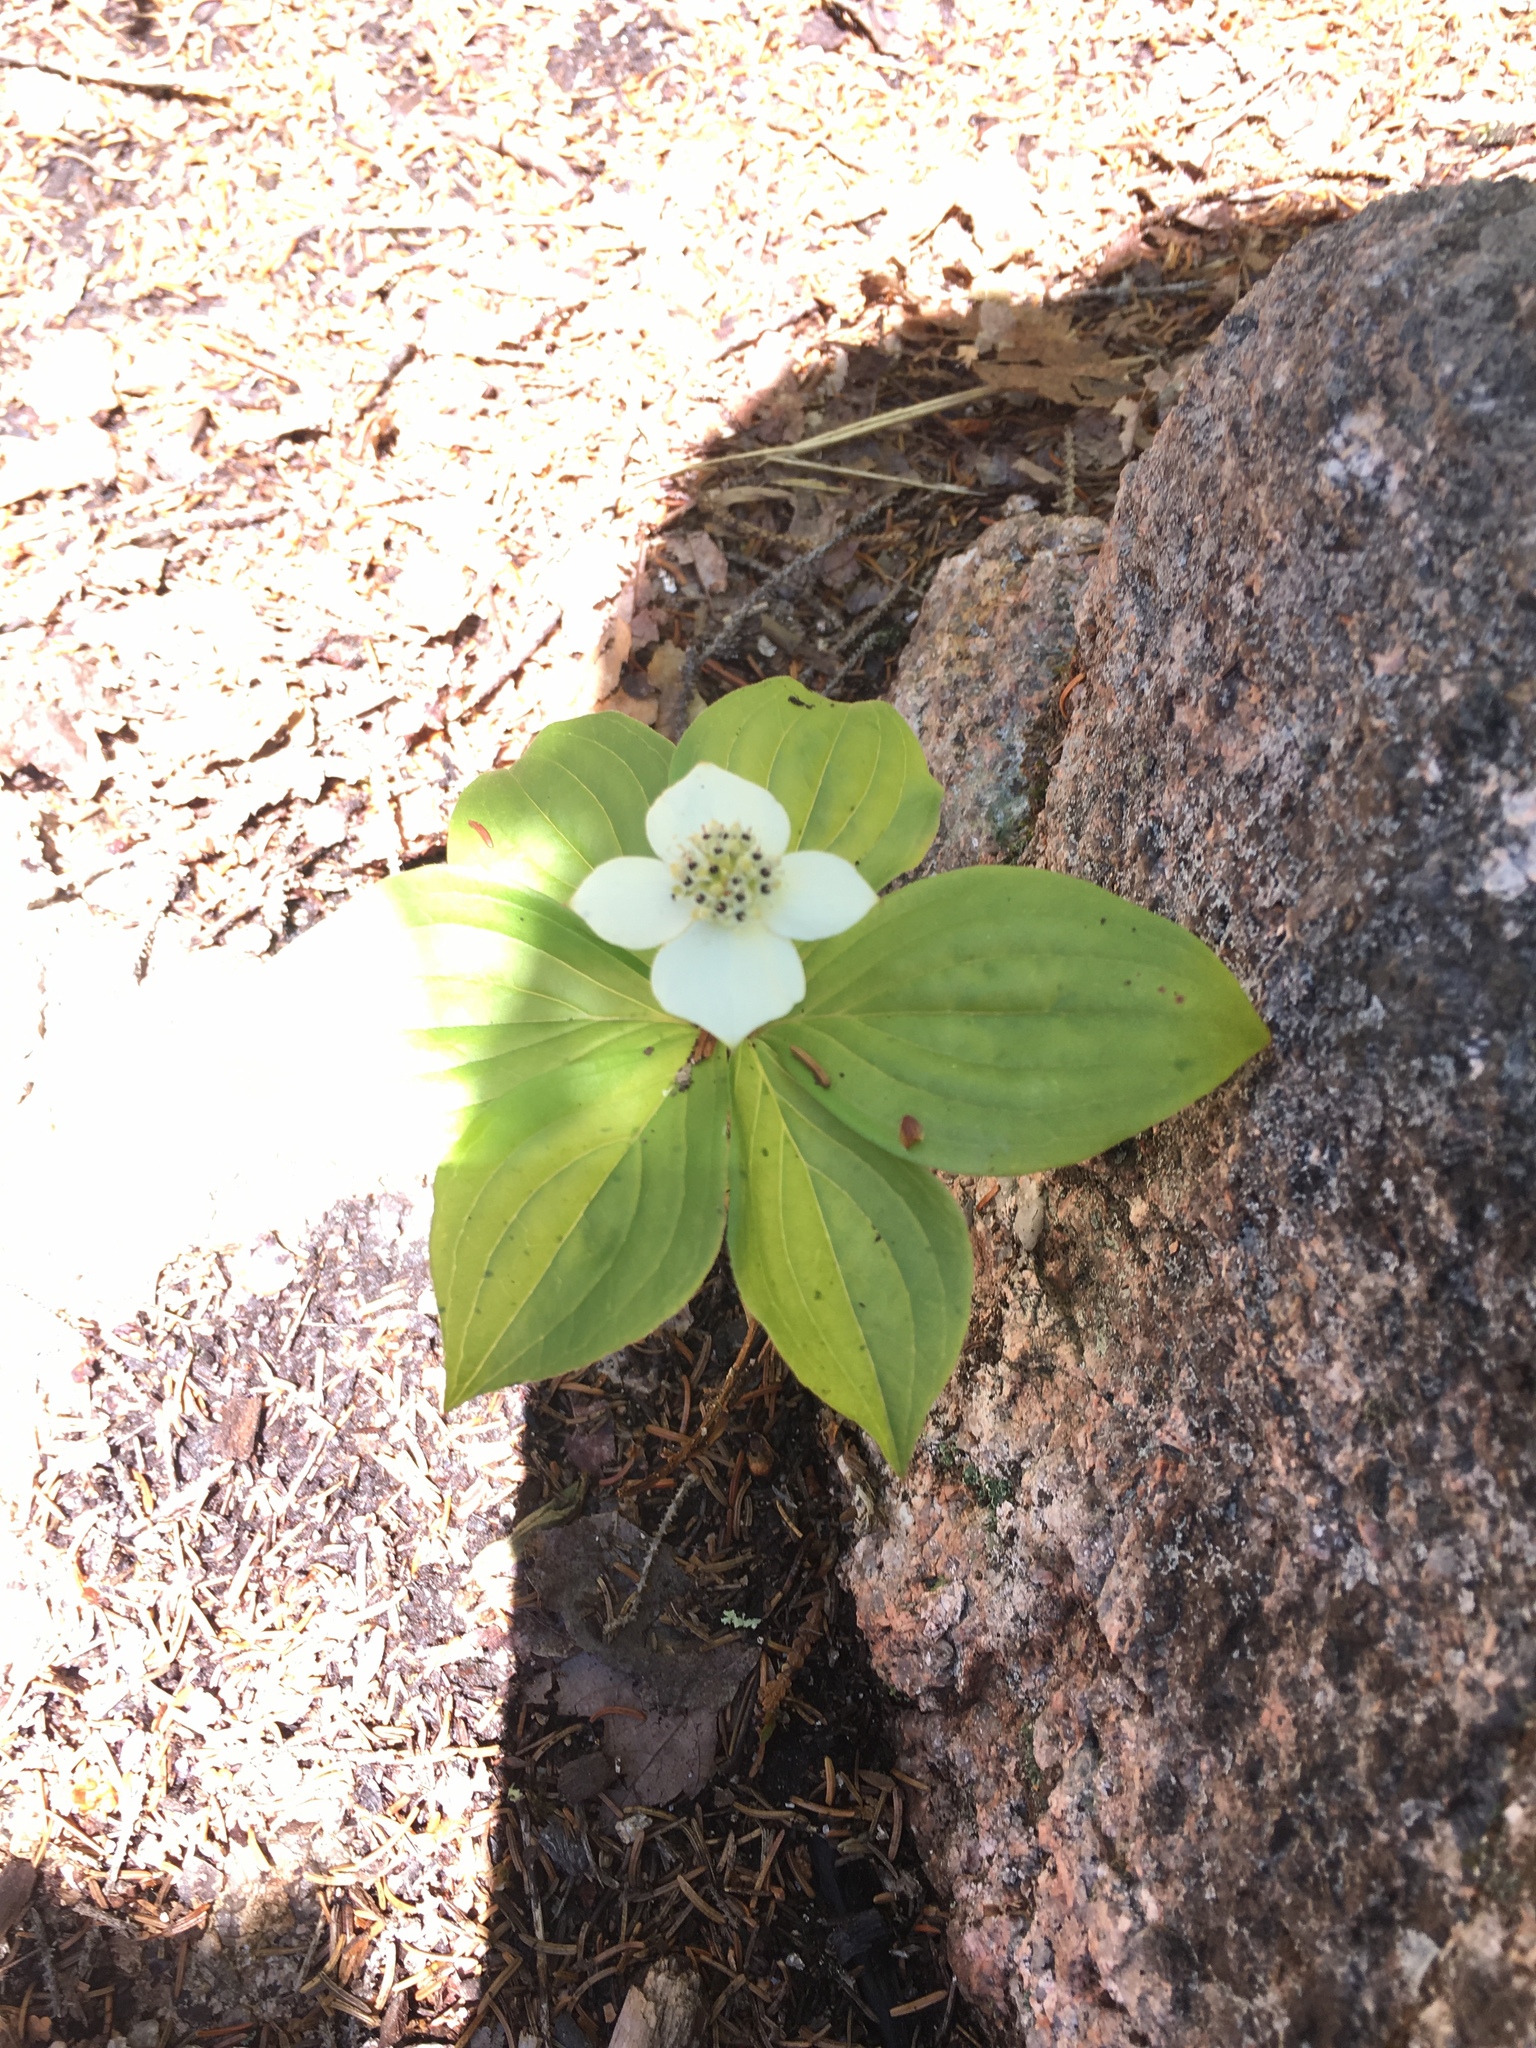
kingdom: Plantae
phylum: Tracheophyta
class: Magnoliopsida
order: Cornales
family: Cornaceae
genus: Cornus
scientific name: Cornus canadensis
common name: Creeping dogwood
